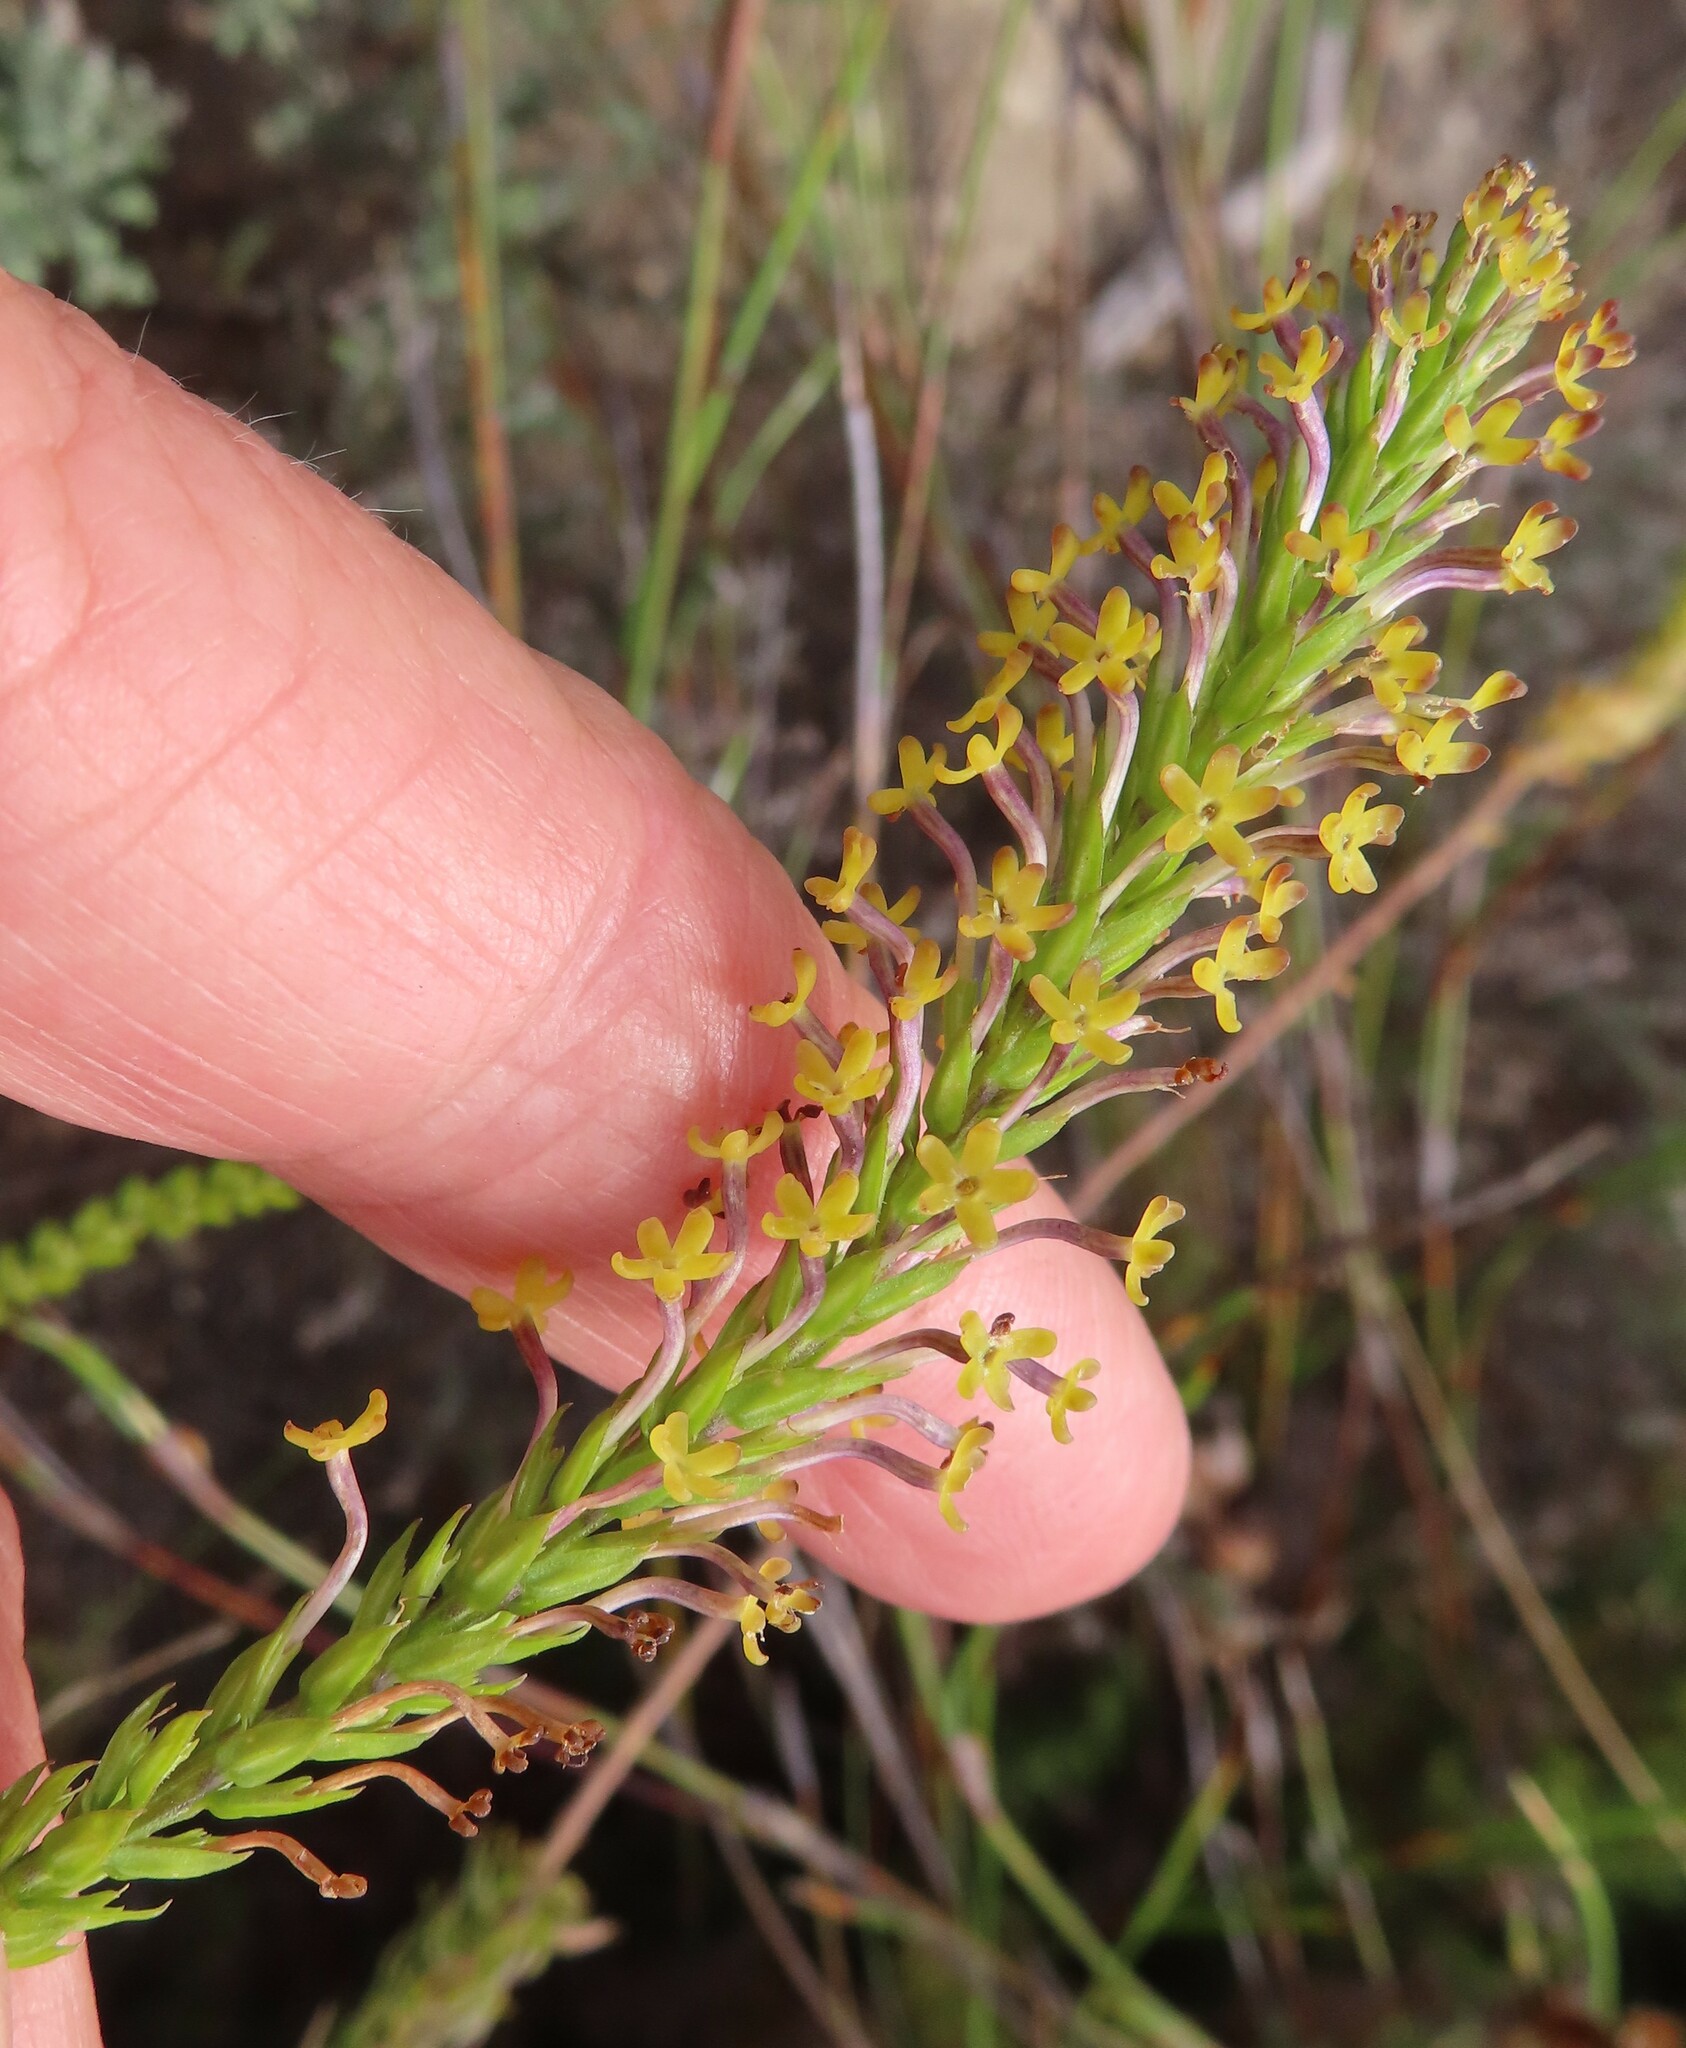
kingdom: Plantae
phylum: Tracheophyta
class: Magnoliopsida
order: Lamiales
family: Scrophulariaceae
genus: Microdon
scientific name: Microdon dubius
